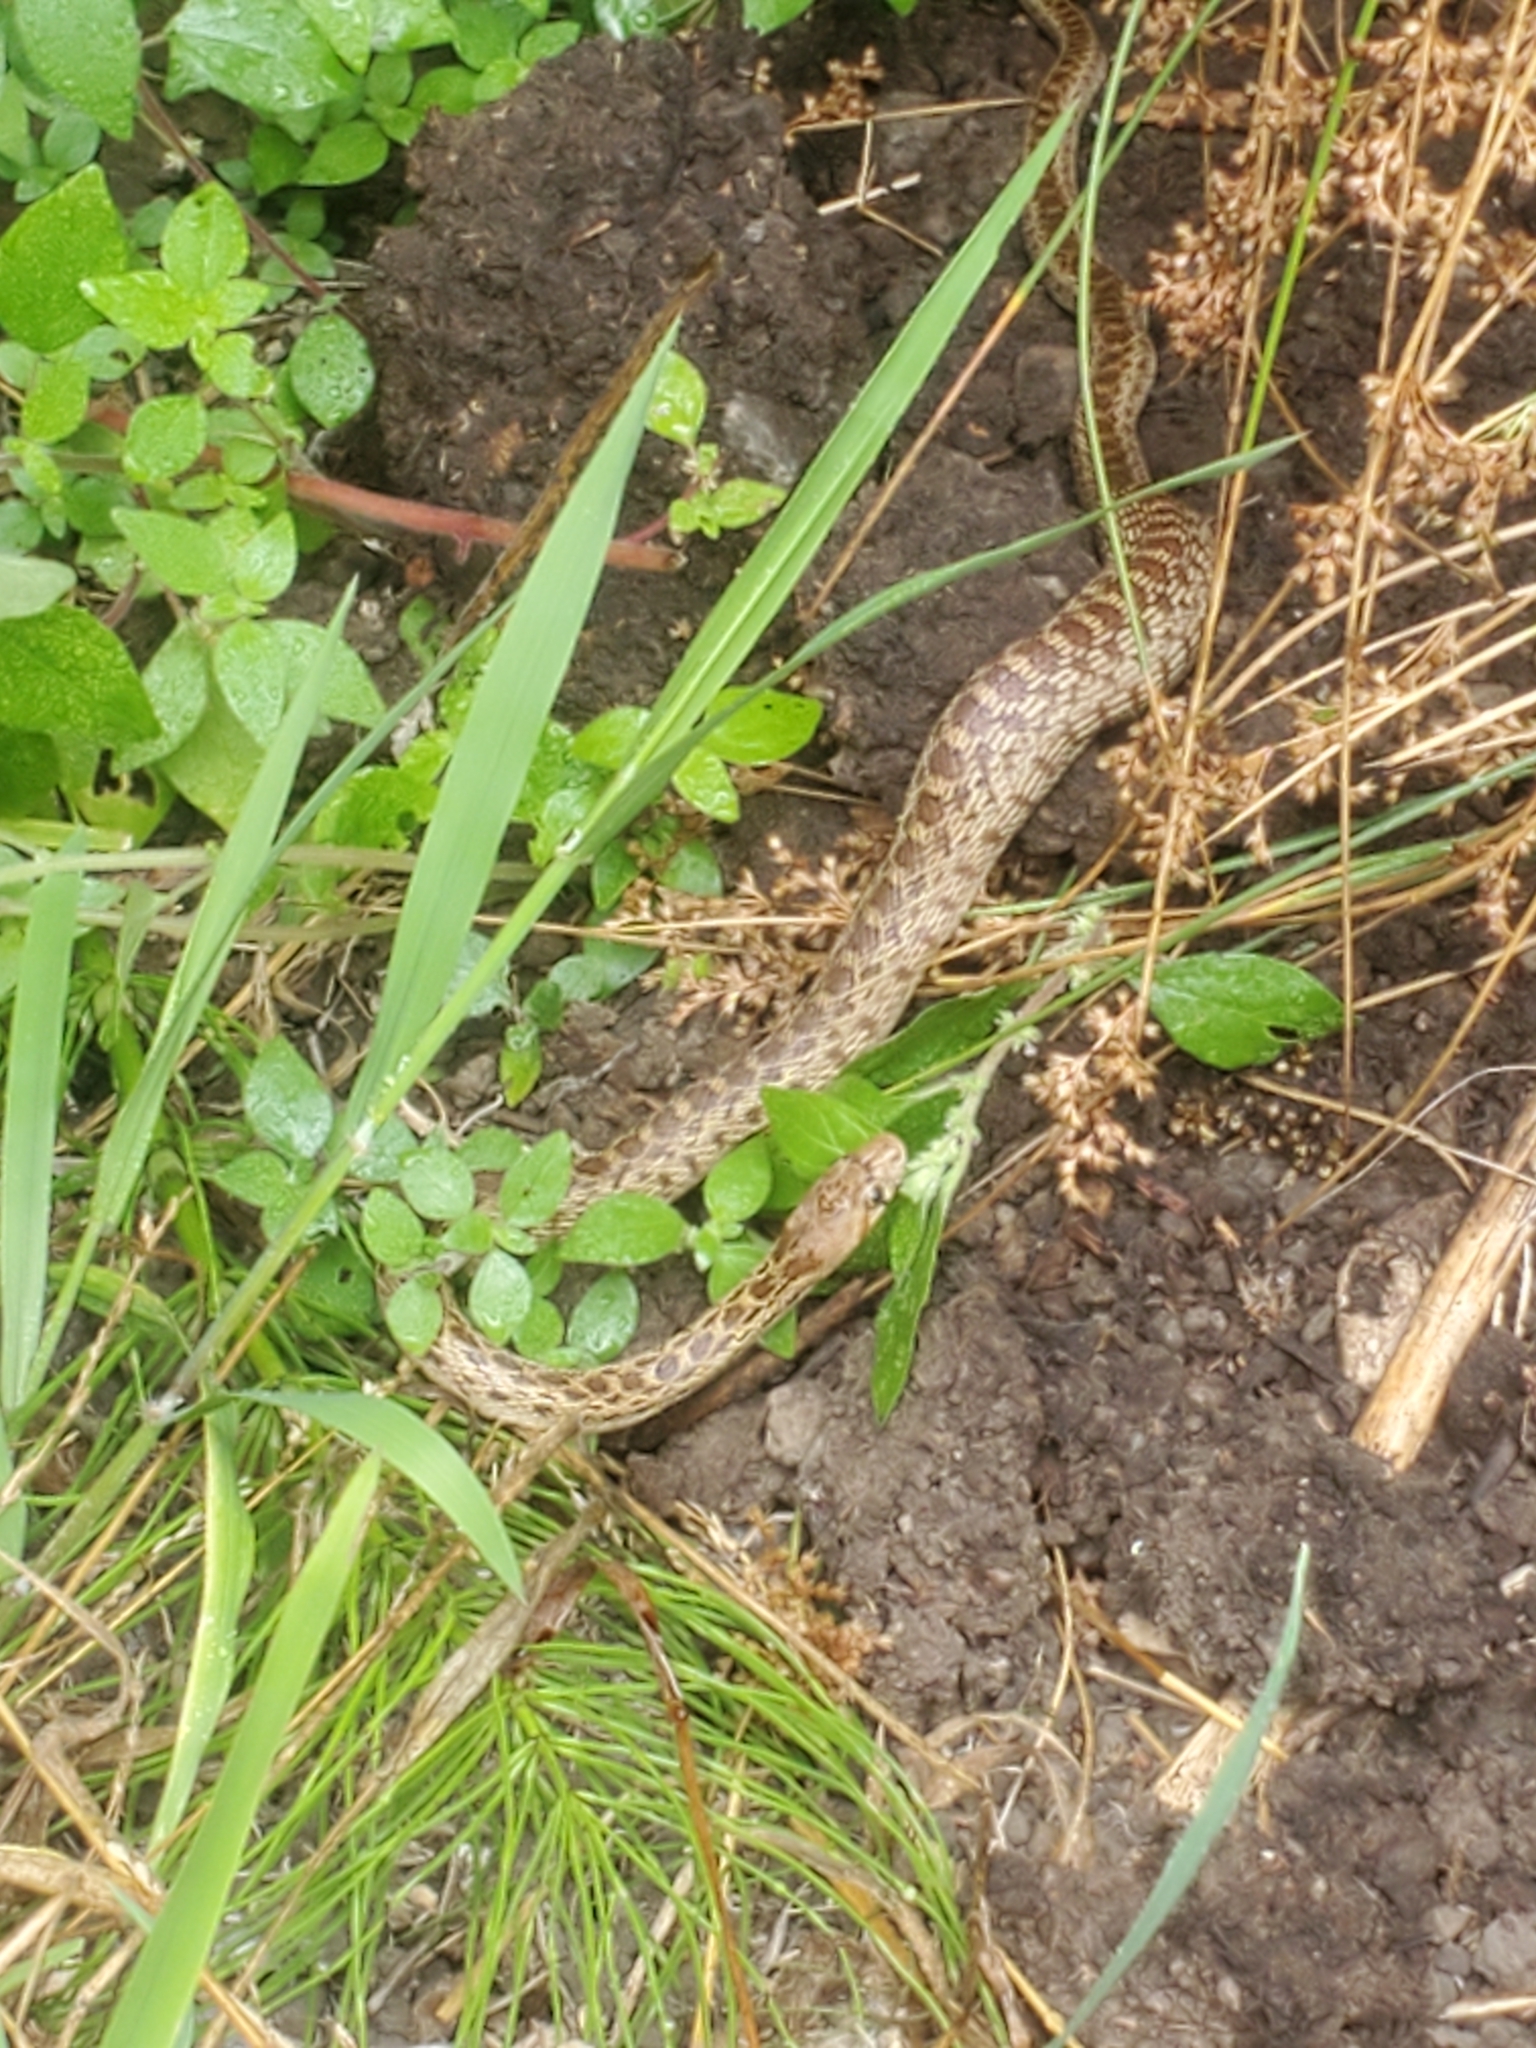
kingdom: Animalia
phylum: Chordata
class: Squamata
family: Colubridae
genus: Pituophis
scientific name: Pituophis catenifer
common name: Gopher snake
